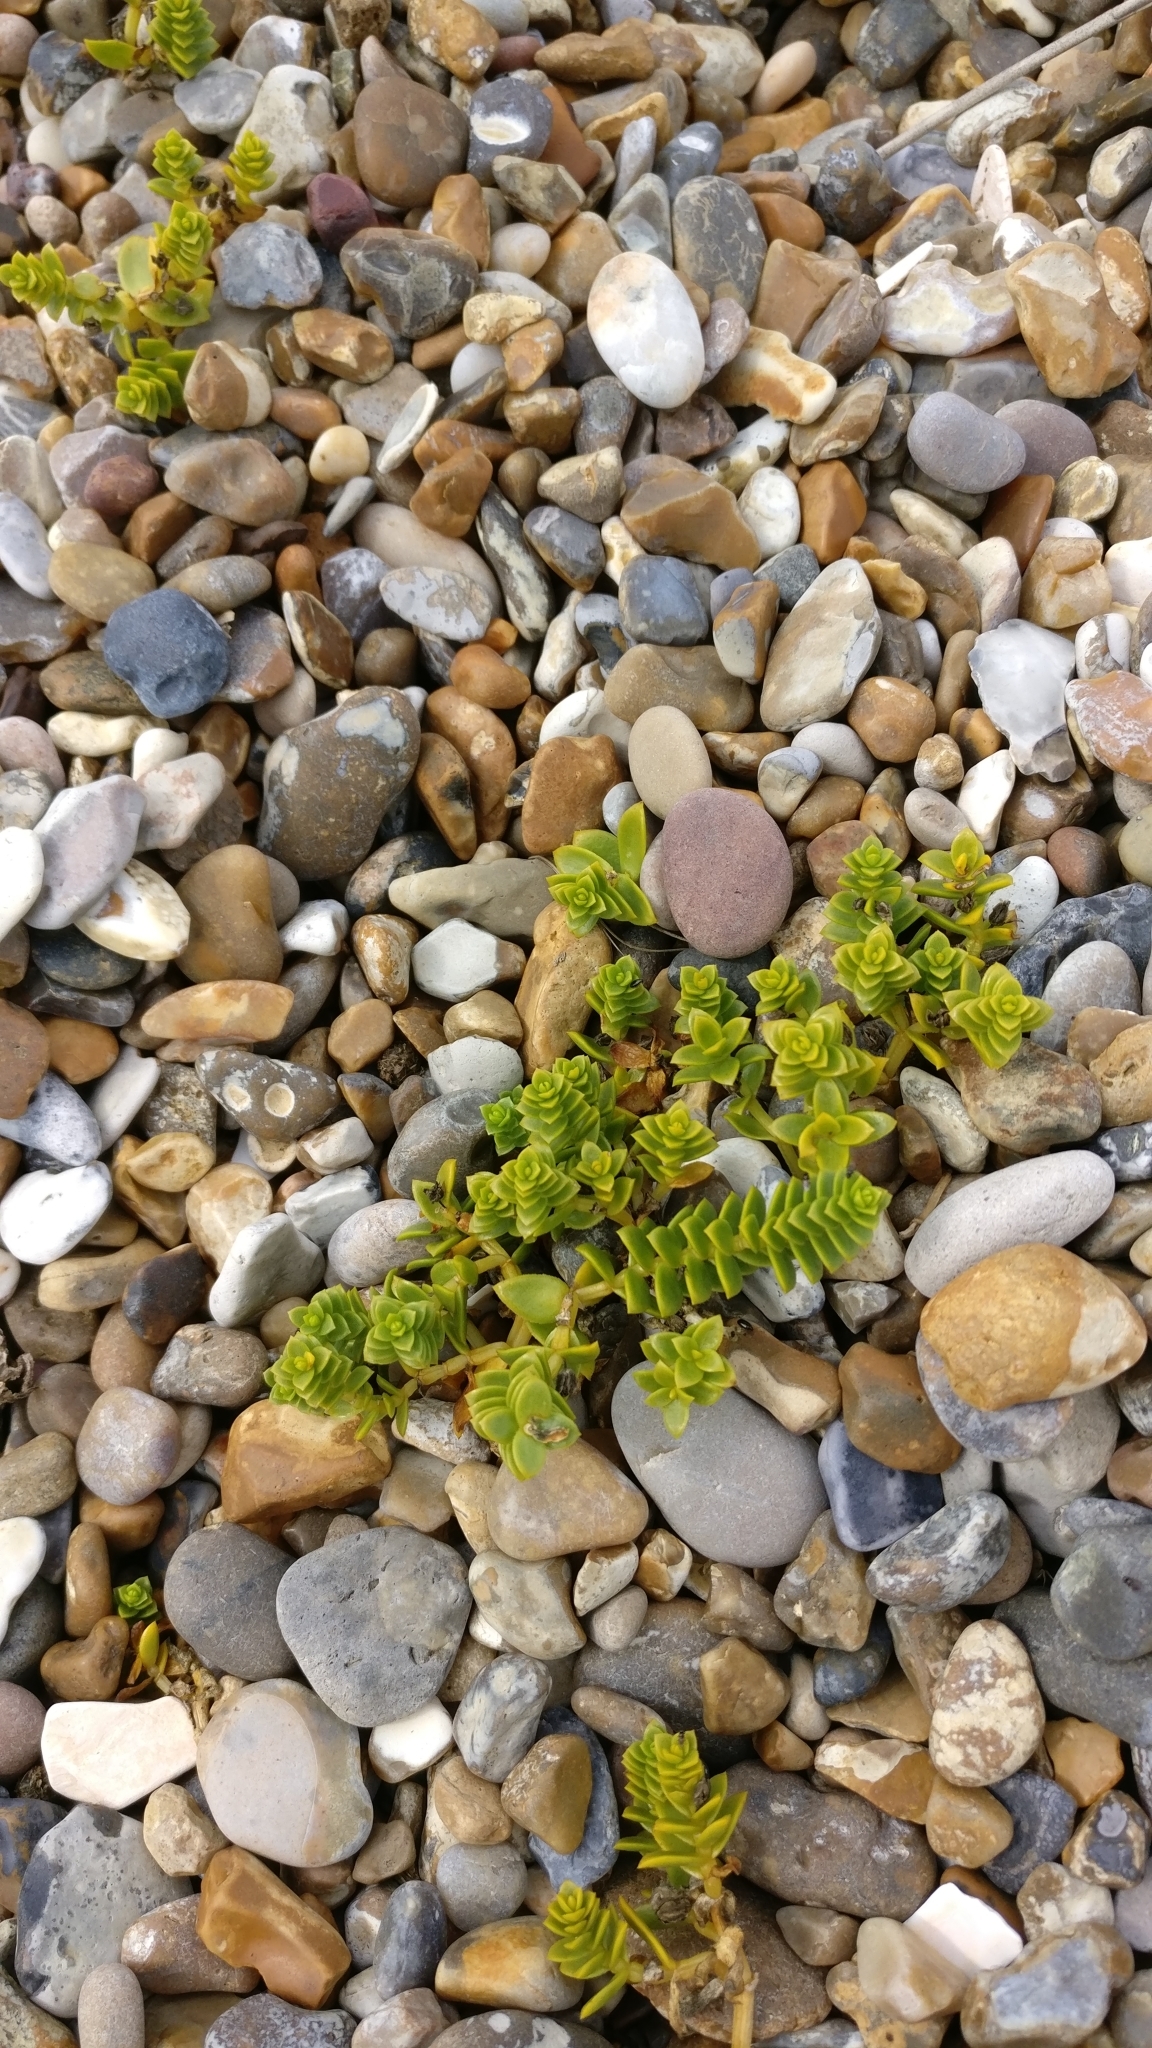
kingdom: Plantae
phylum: Tracheophyta
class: Magnoliopsida
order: Caryophyllales
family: Caryophyllaceae
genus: Honckenya
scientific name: Honckenya peploides
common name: Sea sandwort
